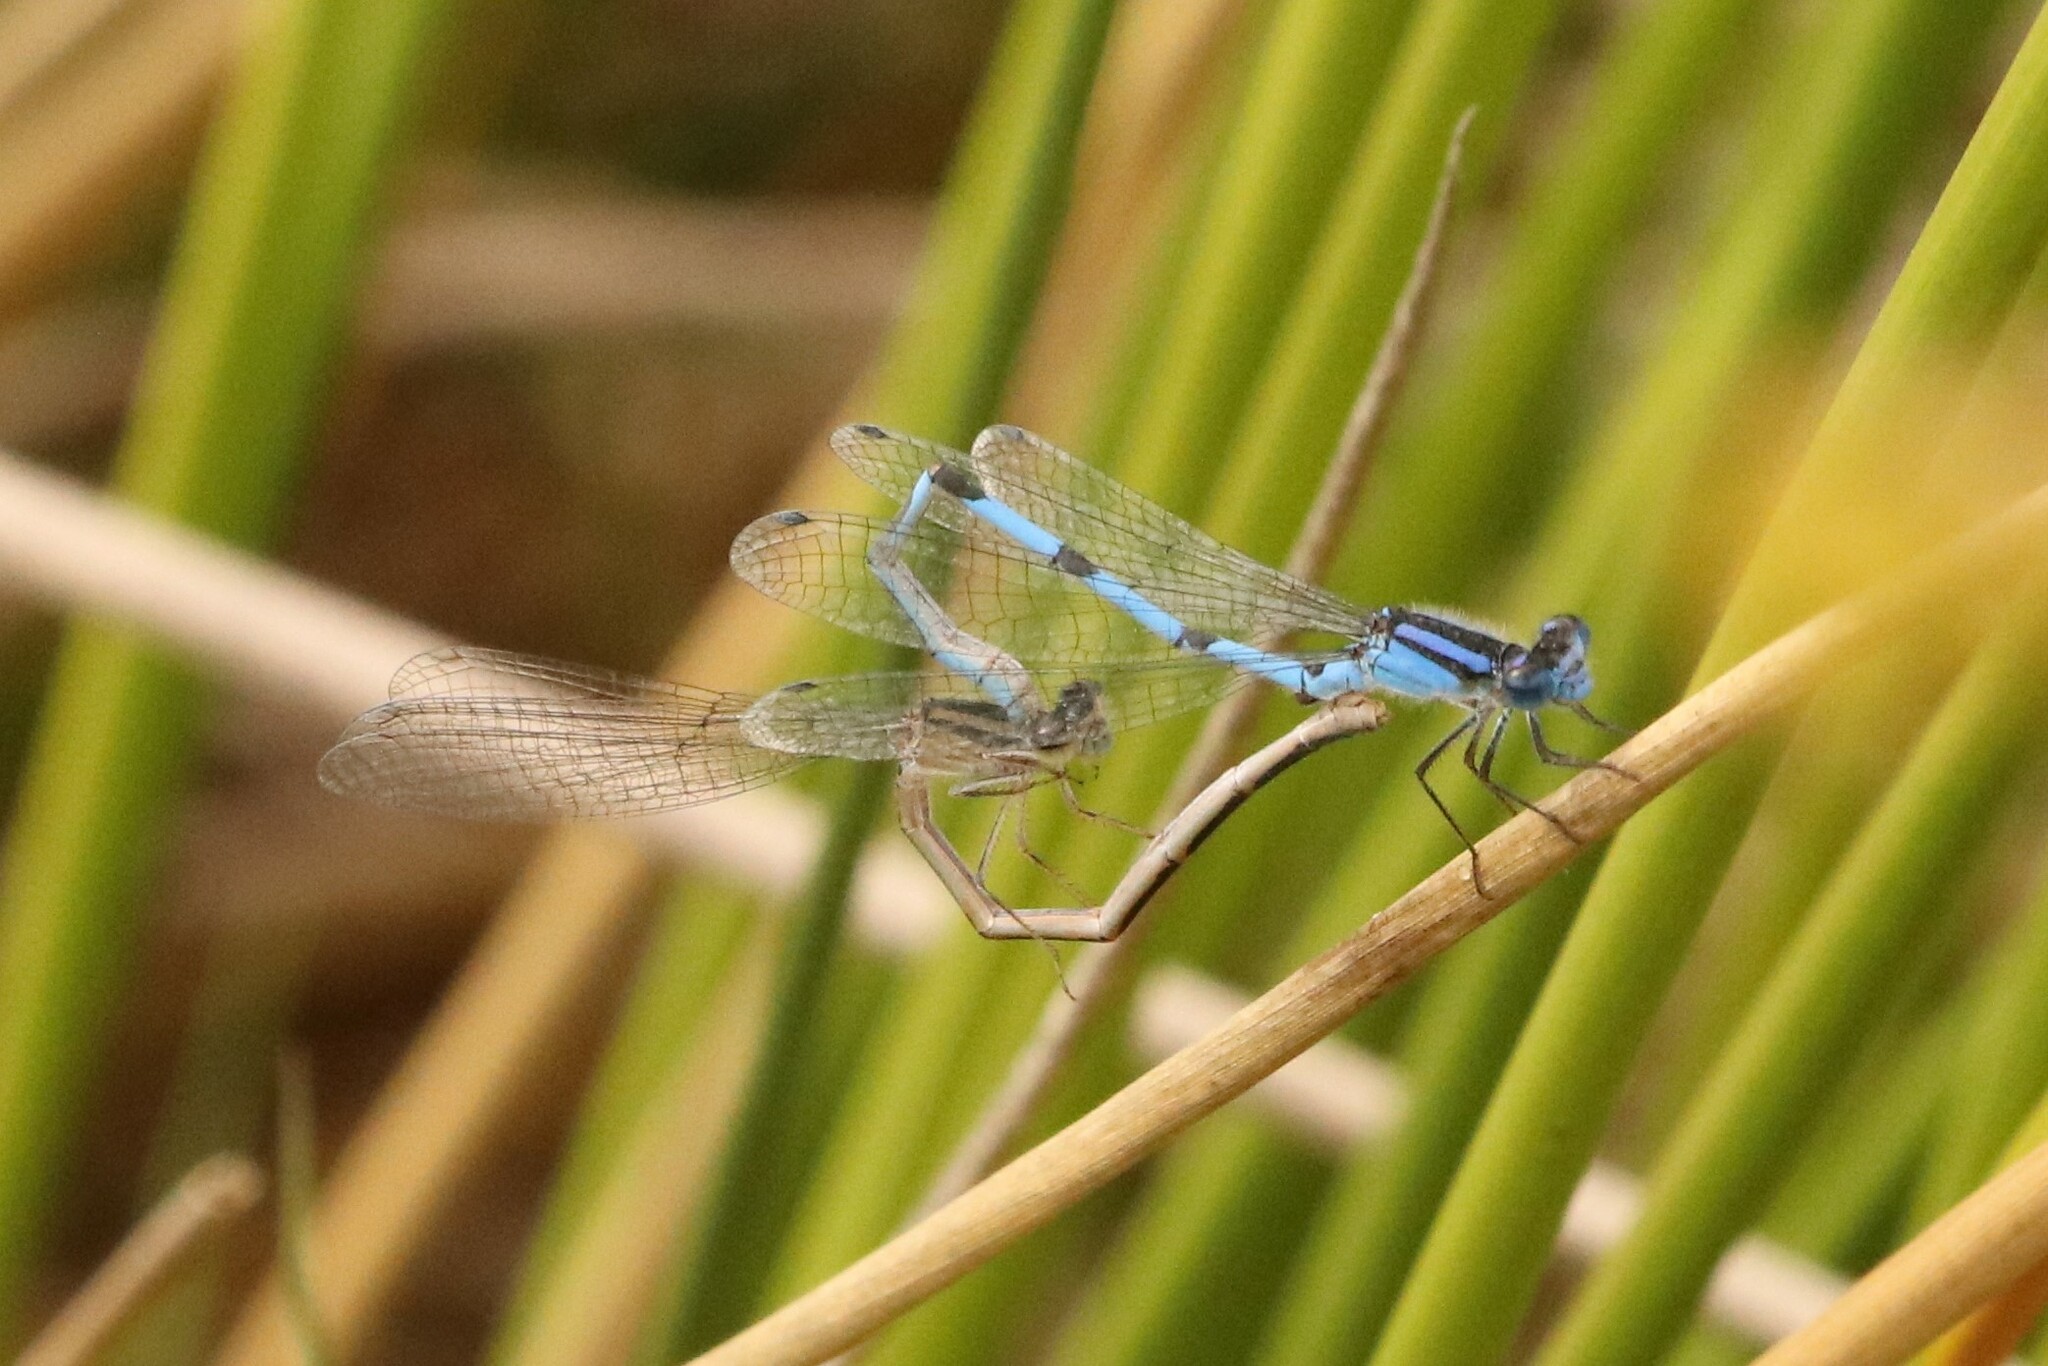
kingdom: Animalia
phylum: Arthropoda
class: Insecta
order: Odonata
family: Coenagrionidae
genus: Enallagma
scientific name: Enallagma civile
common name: Damselfly
